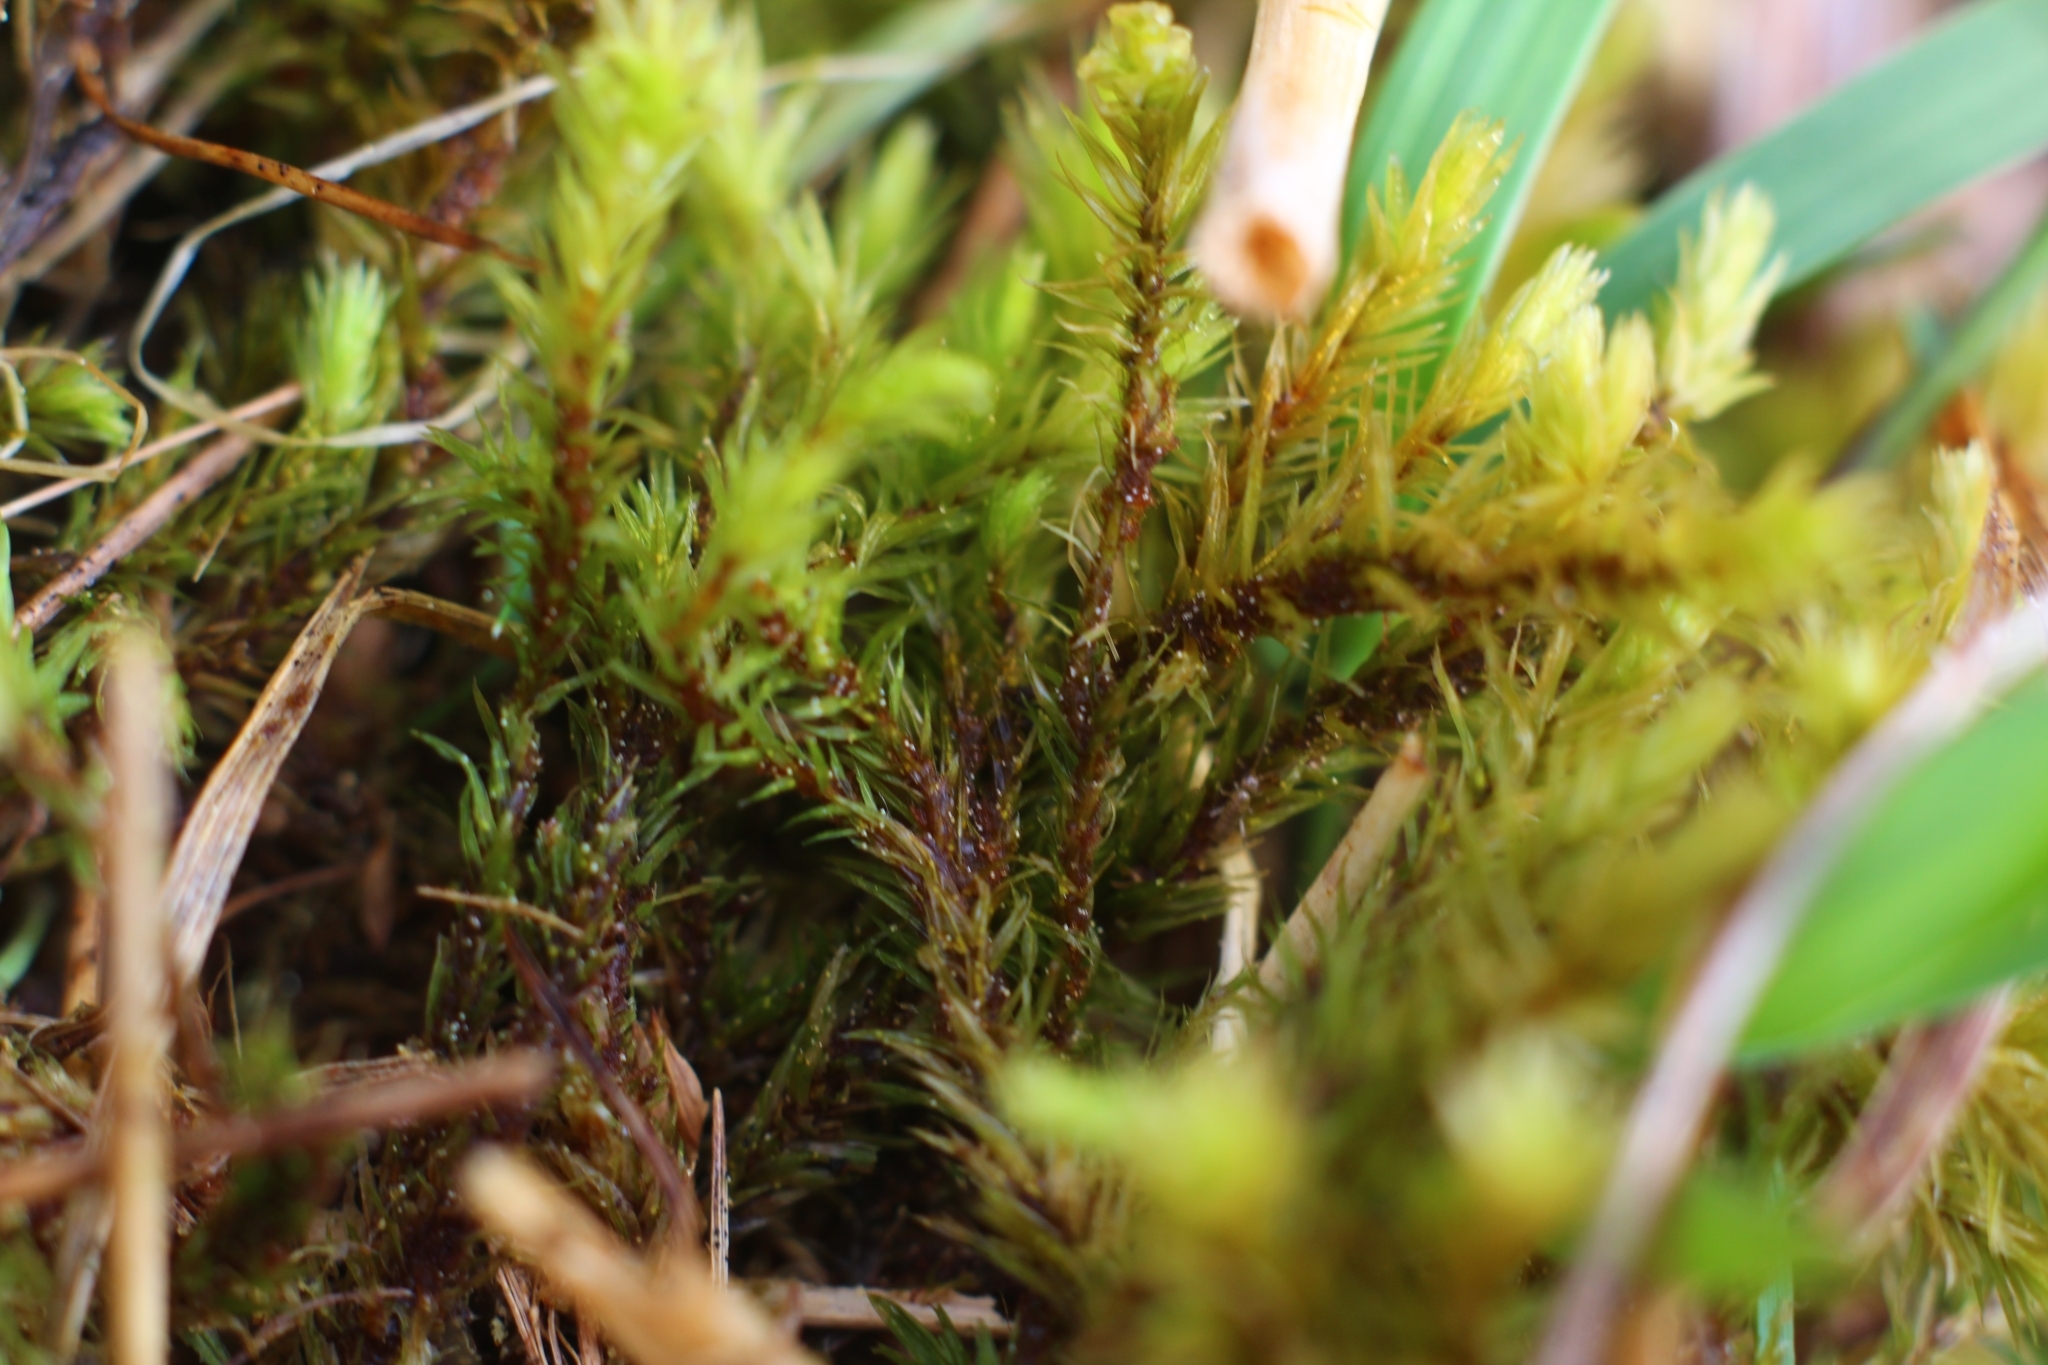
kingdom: Plantae
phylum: Bryophyta
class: Bryopsida
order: Aulacomniales
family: Aulacomniaceae
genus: Aulacomnium
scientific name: Aulacomnium palustre
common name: Bog groove-moss
